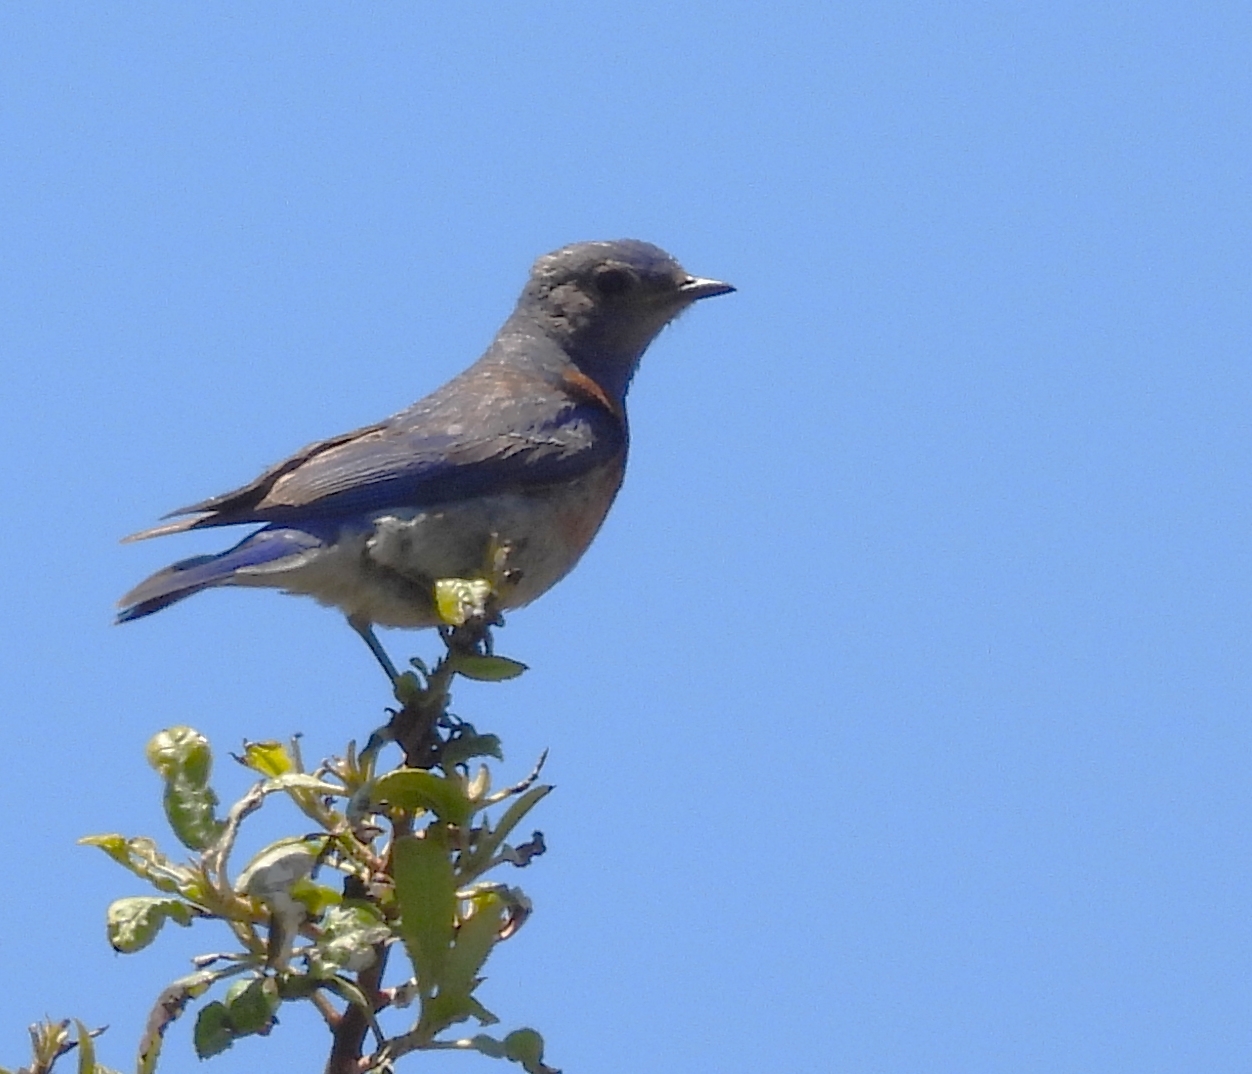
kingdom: Animalia
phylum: Chordata
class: Aves
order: Passeriformes
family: Turdidae
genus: Sialia
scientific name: Sialia mexicana
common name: Western bluebird
